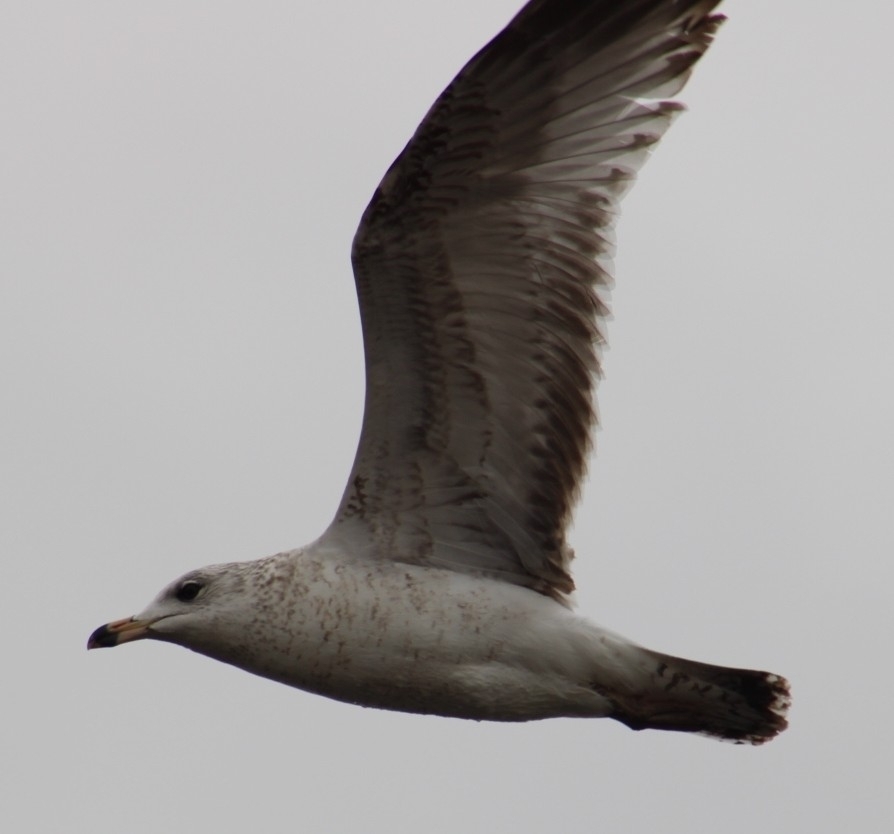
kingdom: Animalia
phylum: Chordata
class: Aves
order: Charadriiformes
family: Laridae
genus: Larus
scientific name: Larus delawarensis
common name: Ring-billed gull
